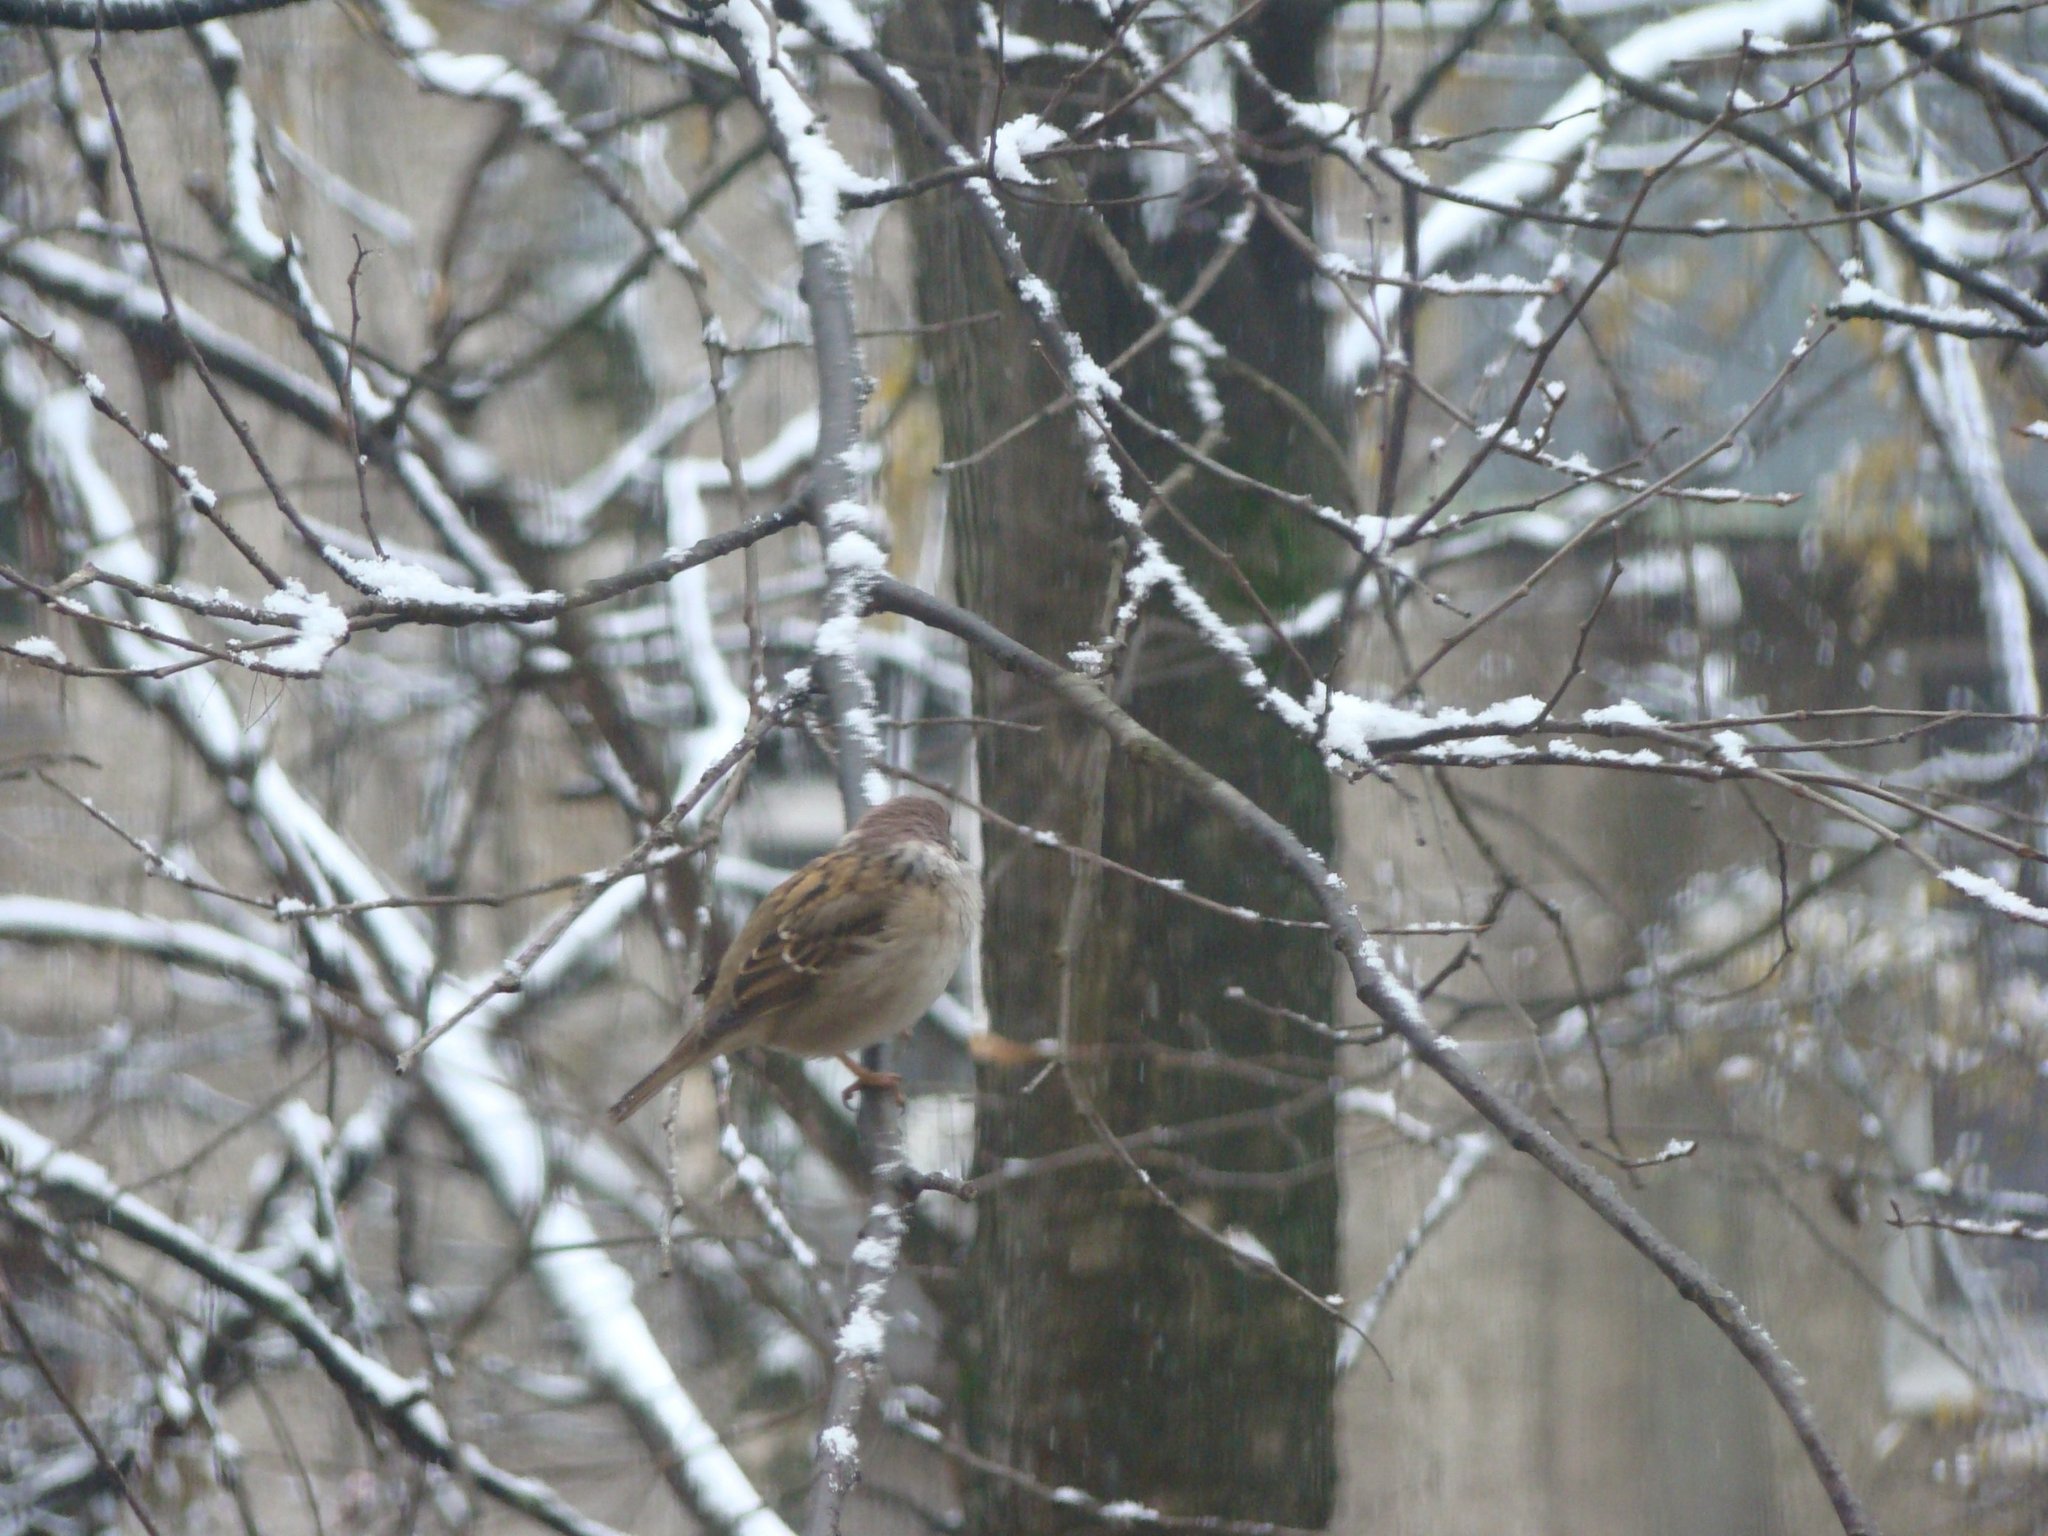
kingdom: Animalia
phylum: Chordata
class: Aves
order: Passeriformes
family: Passeridae
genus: Passer
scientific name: Passer montanus
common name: Eurasian tree sparrow
